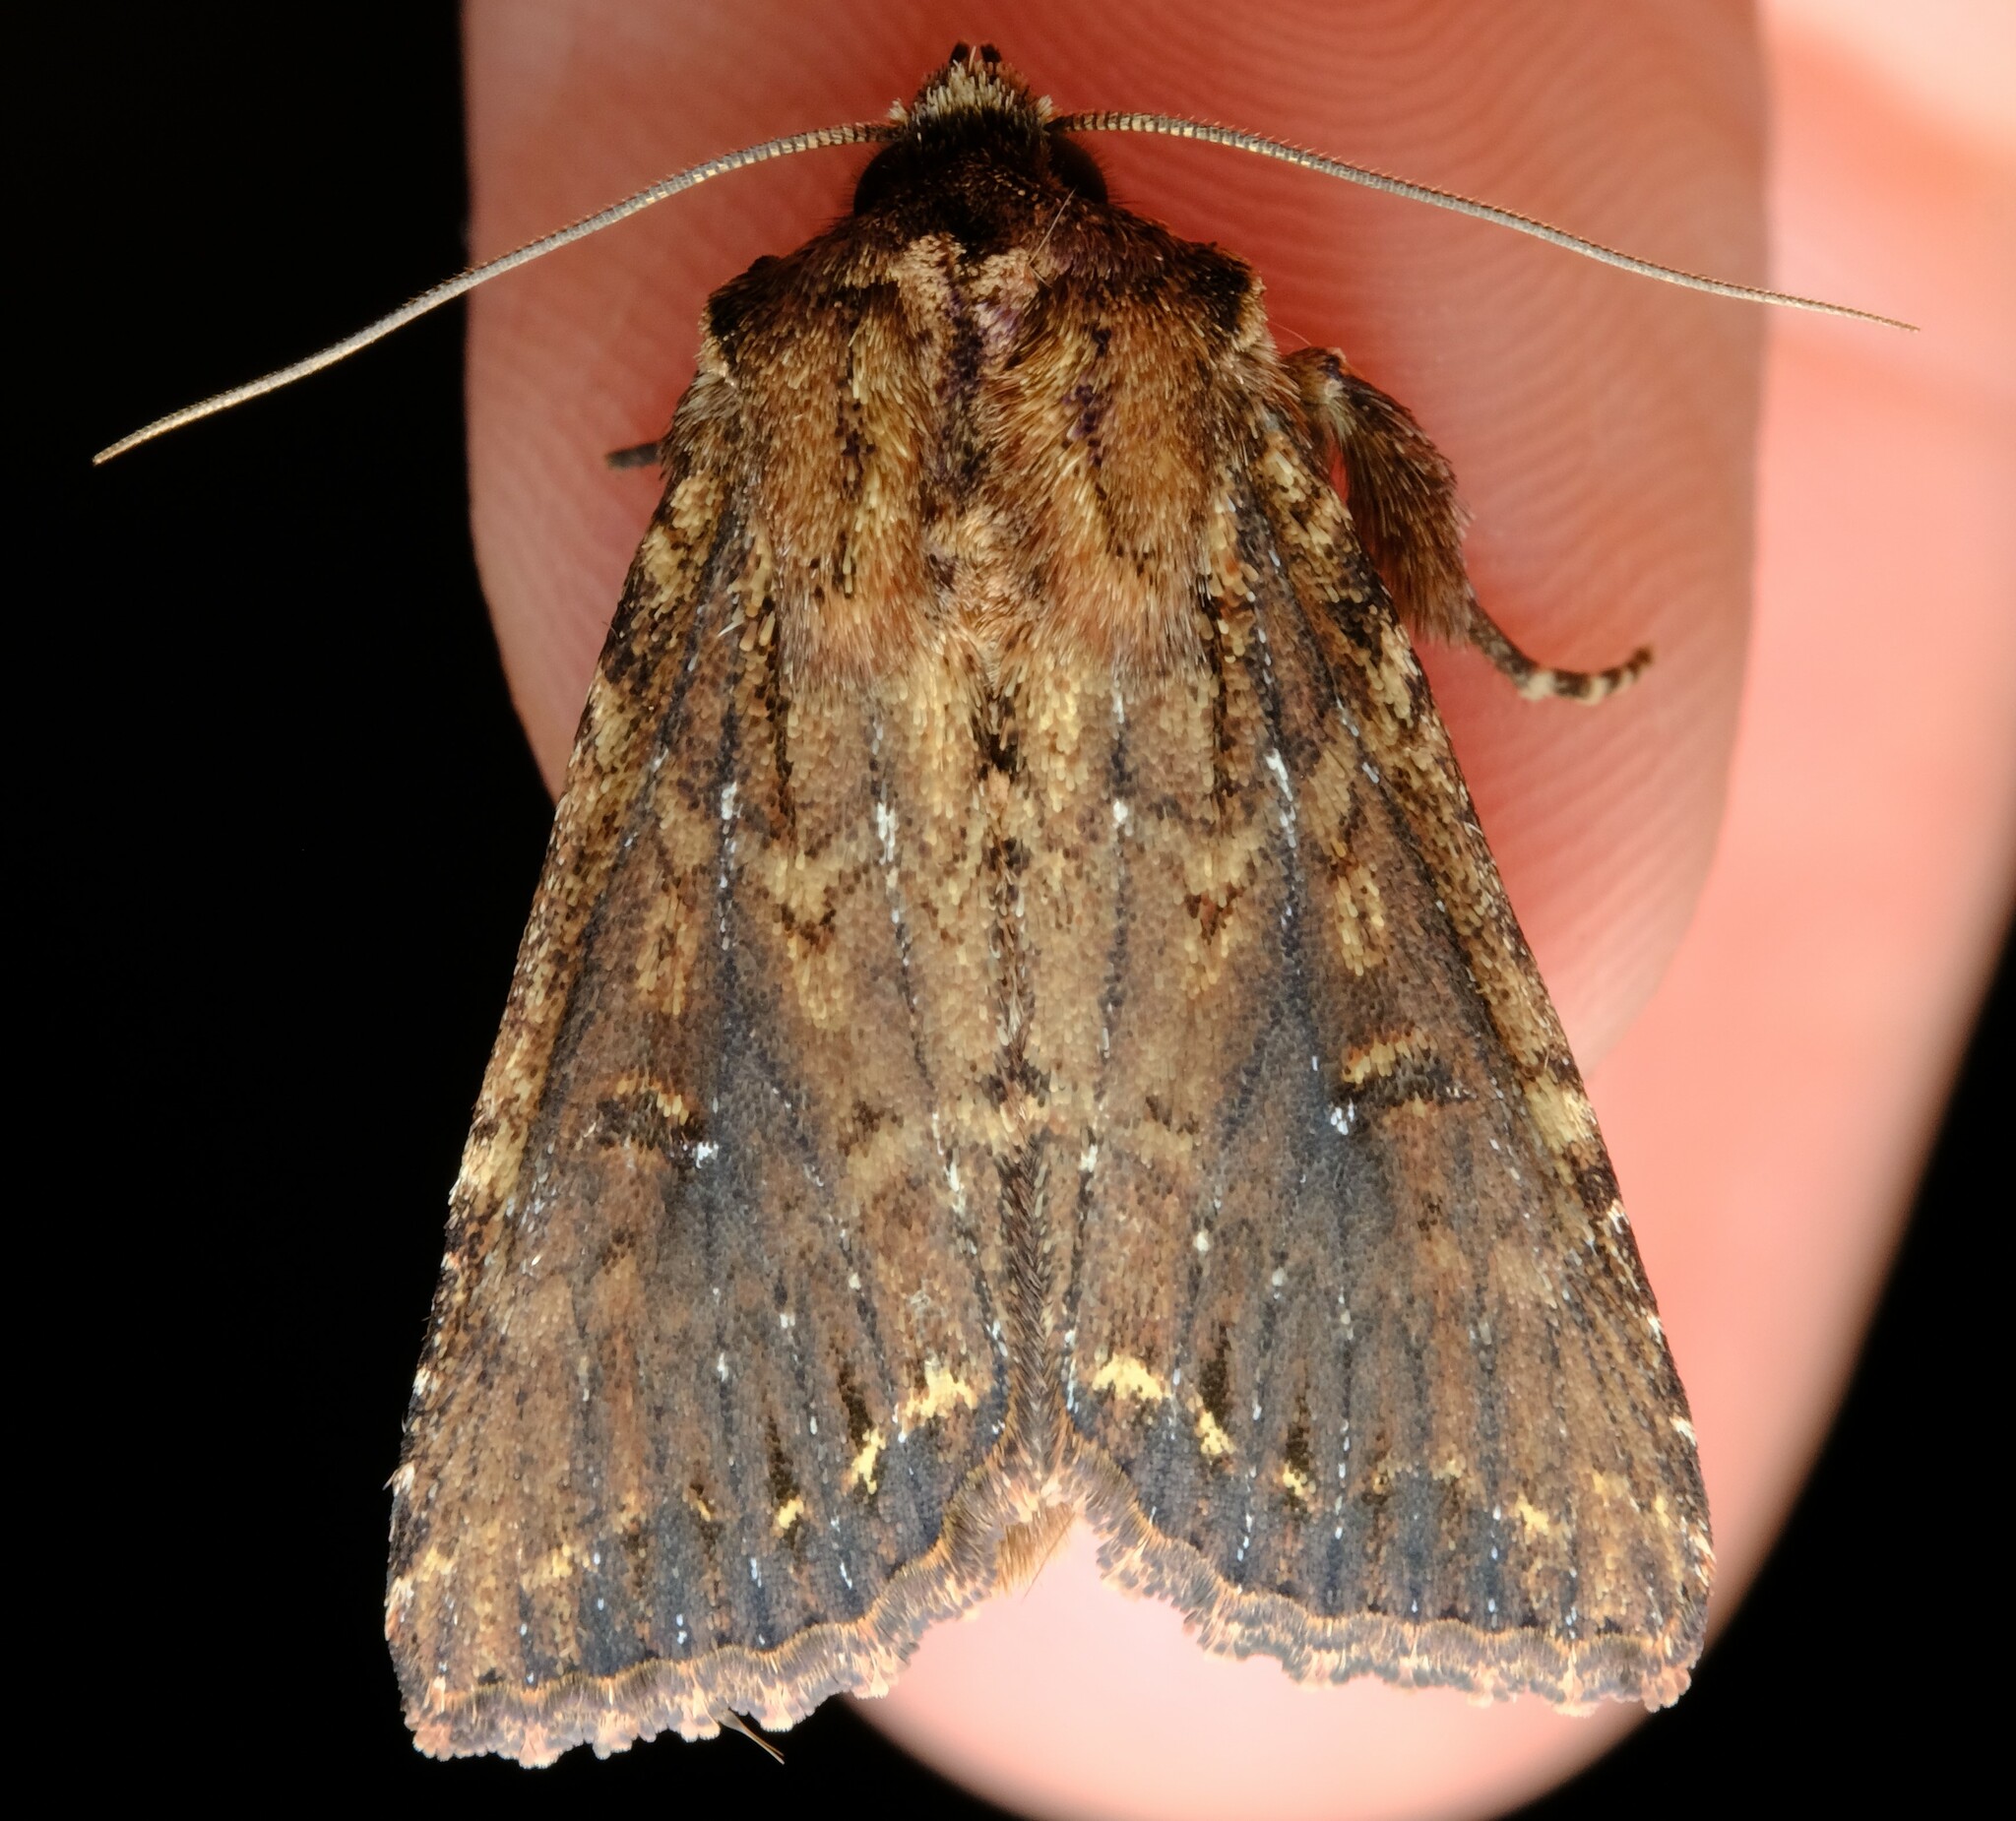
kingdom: Animalia
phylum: Arthropoda
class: Insecta
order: Lepidoptera
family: Noctuidae
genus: Dasygaster
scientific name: Dasygaster ligniplena
